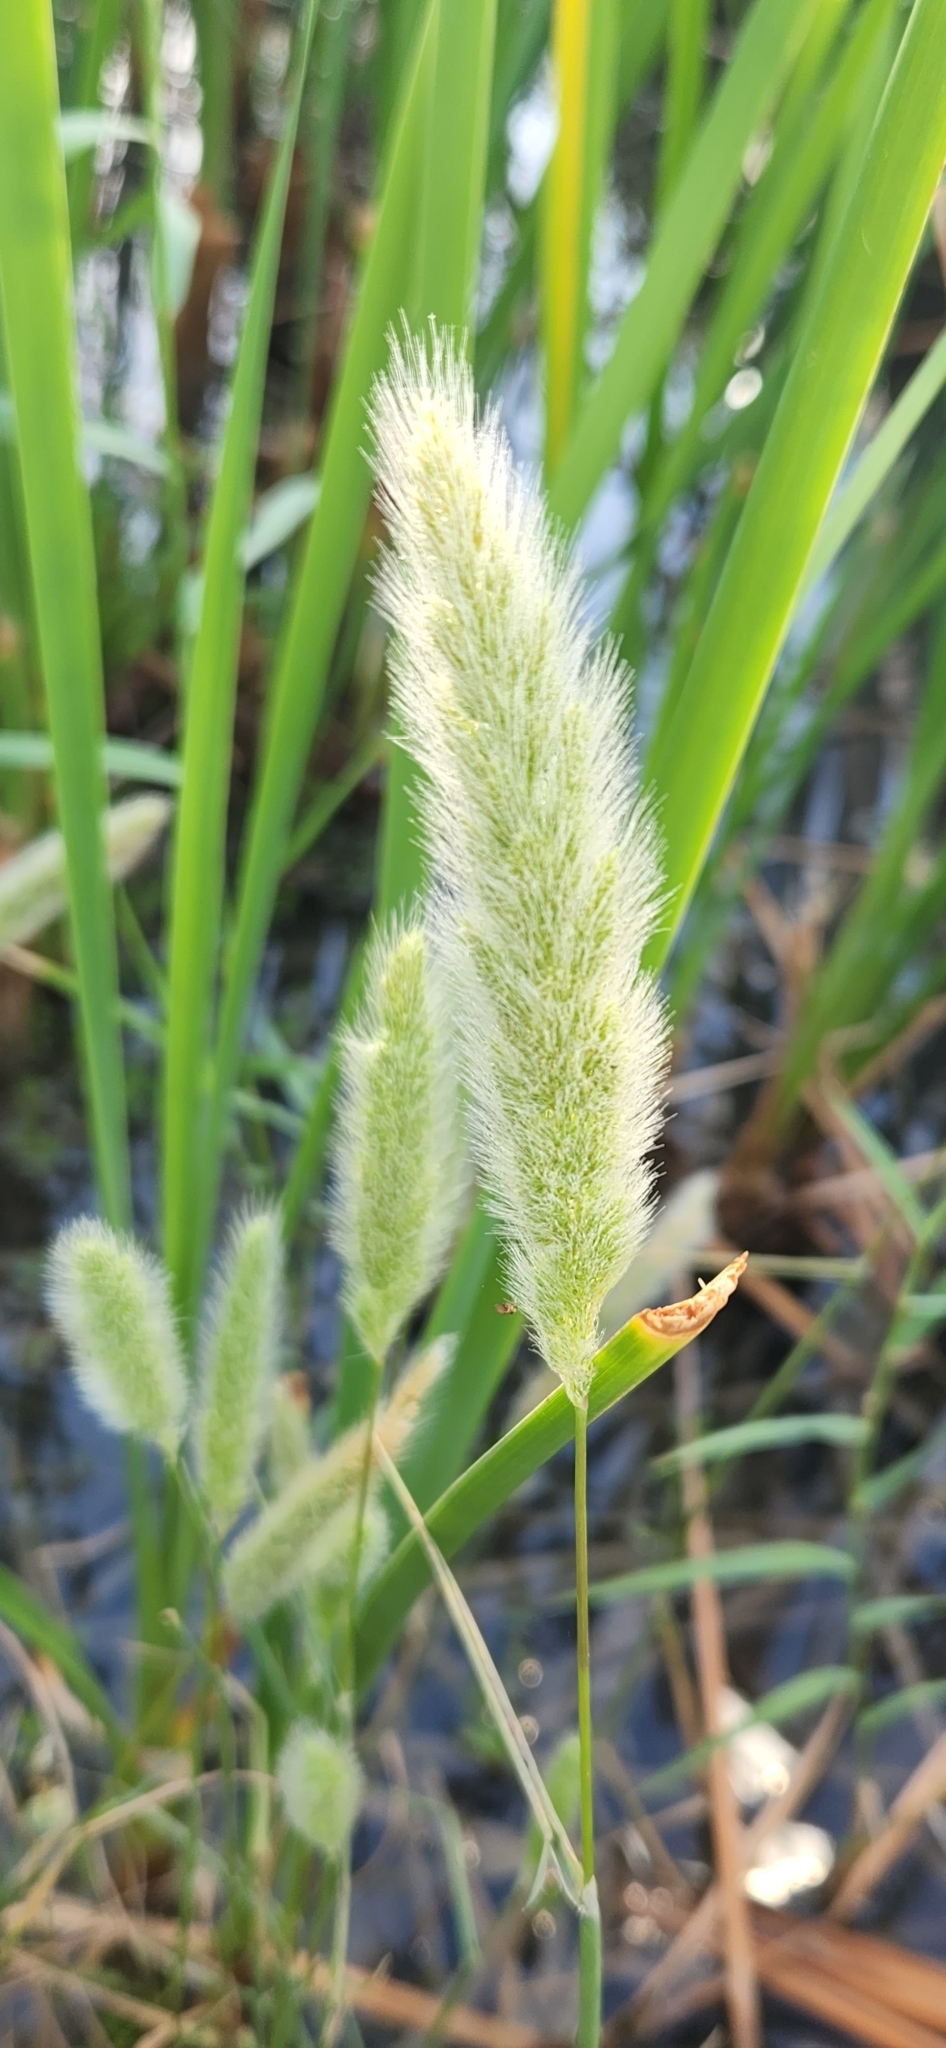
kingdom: Plantae
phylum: Tracheophyta
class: Liliopsida
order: Poales
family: Poaceae
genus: Polypogon
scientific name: Polypogon monspeliensis
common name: Annual rabbitsfoot grass
